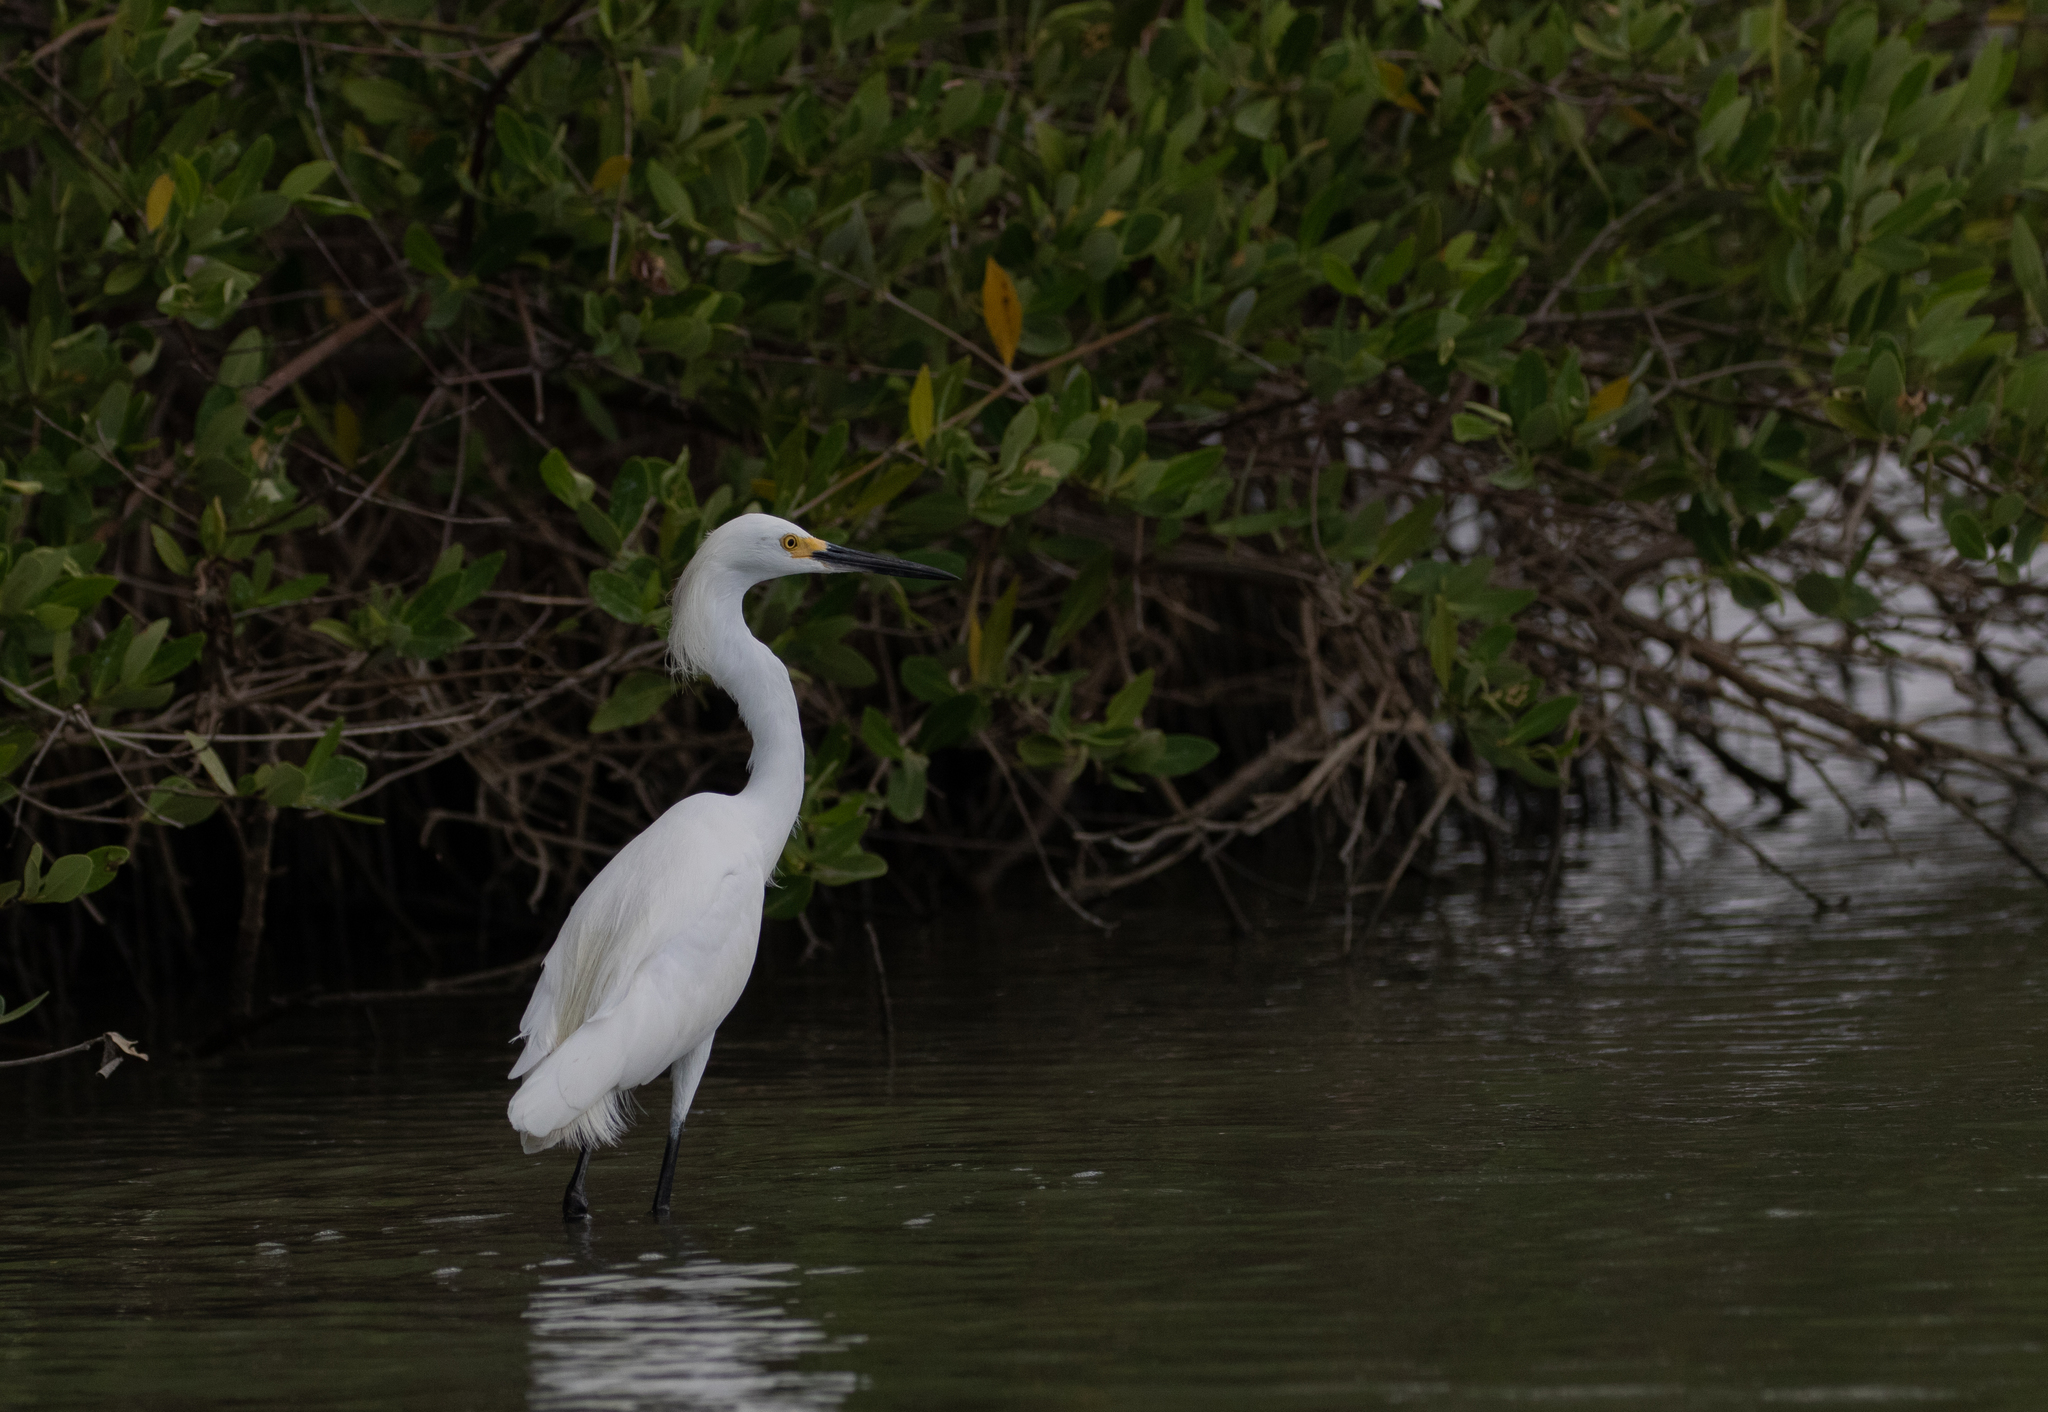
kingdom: Animalia
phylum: Chordata
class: Aves
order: Pelecaniformes
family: Ardeidae
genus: Egretta
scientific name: Egretta thula
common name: Snowy egret
